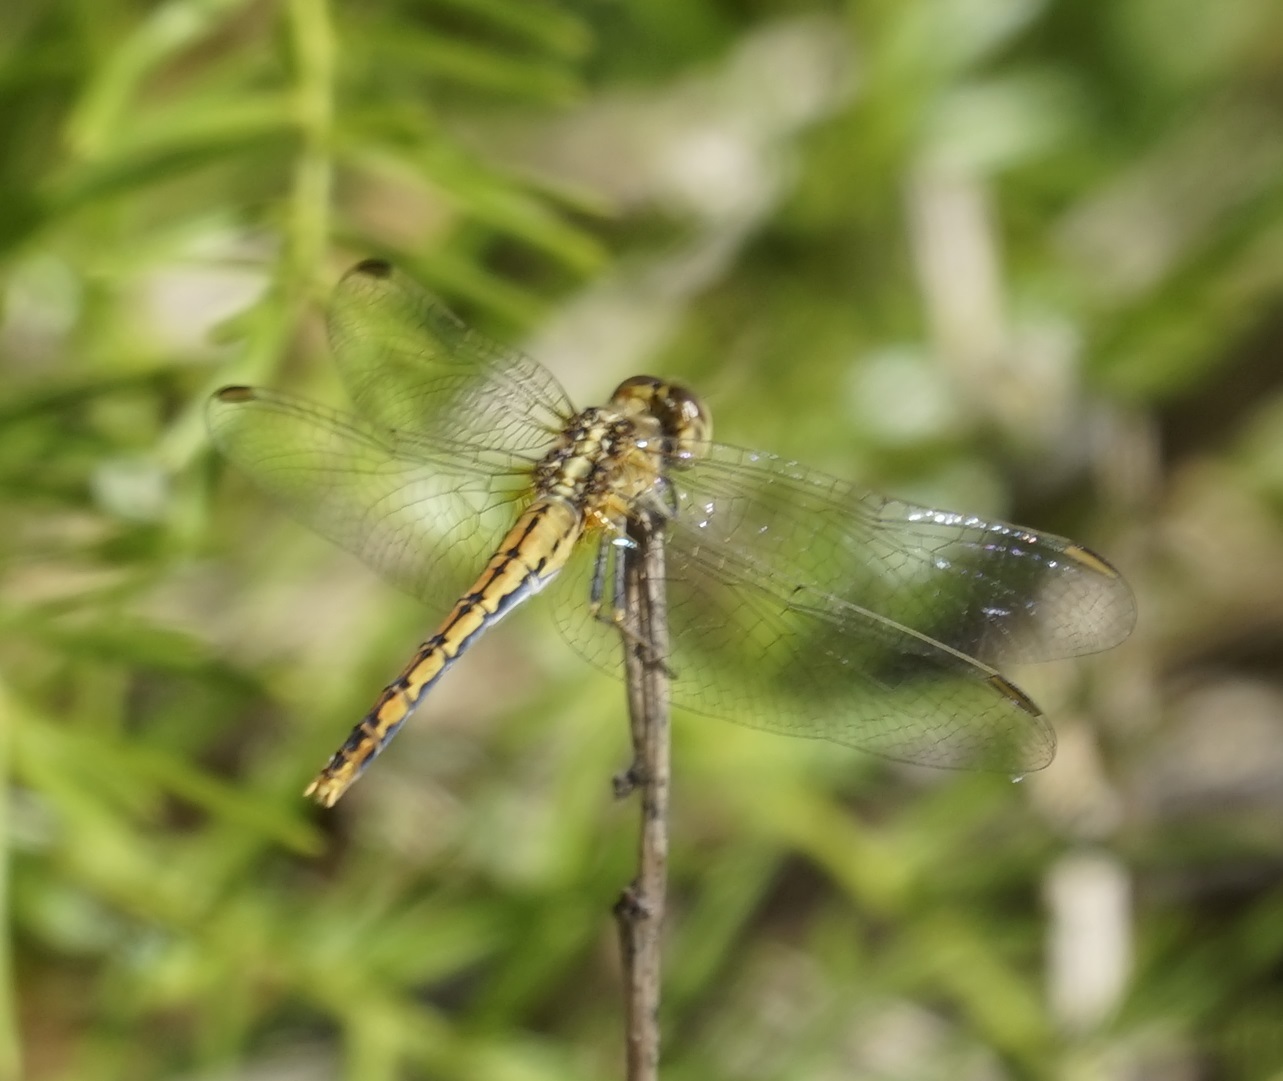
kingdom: Animalia
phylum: Arthropoda
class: Insecta
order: Odonata
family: Libellulidae
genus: Diplacodes
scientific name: Diplacodes bipunctata
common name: Red percher dragonfly
